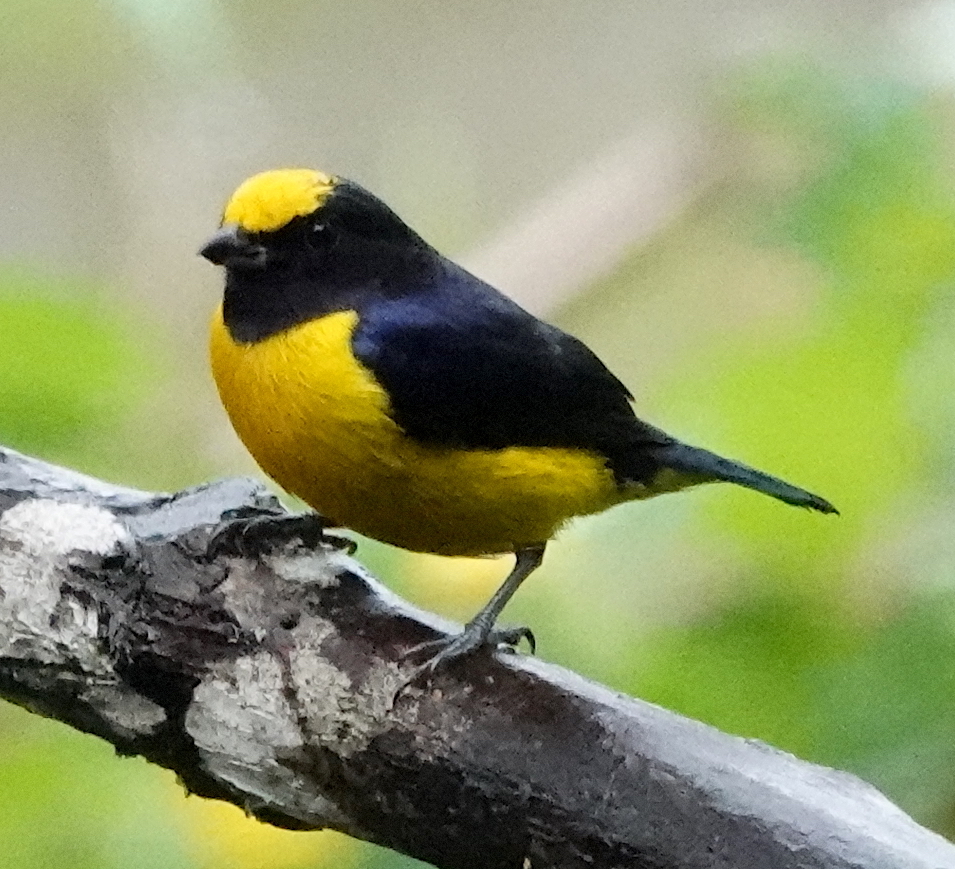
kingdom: Animalia
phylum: Chordata
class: Aves
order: Passeriformes
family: Fringillidae
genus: Euphonia
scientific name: Euphonia xanthogaster
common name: Orange-bellied euphonia
